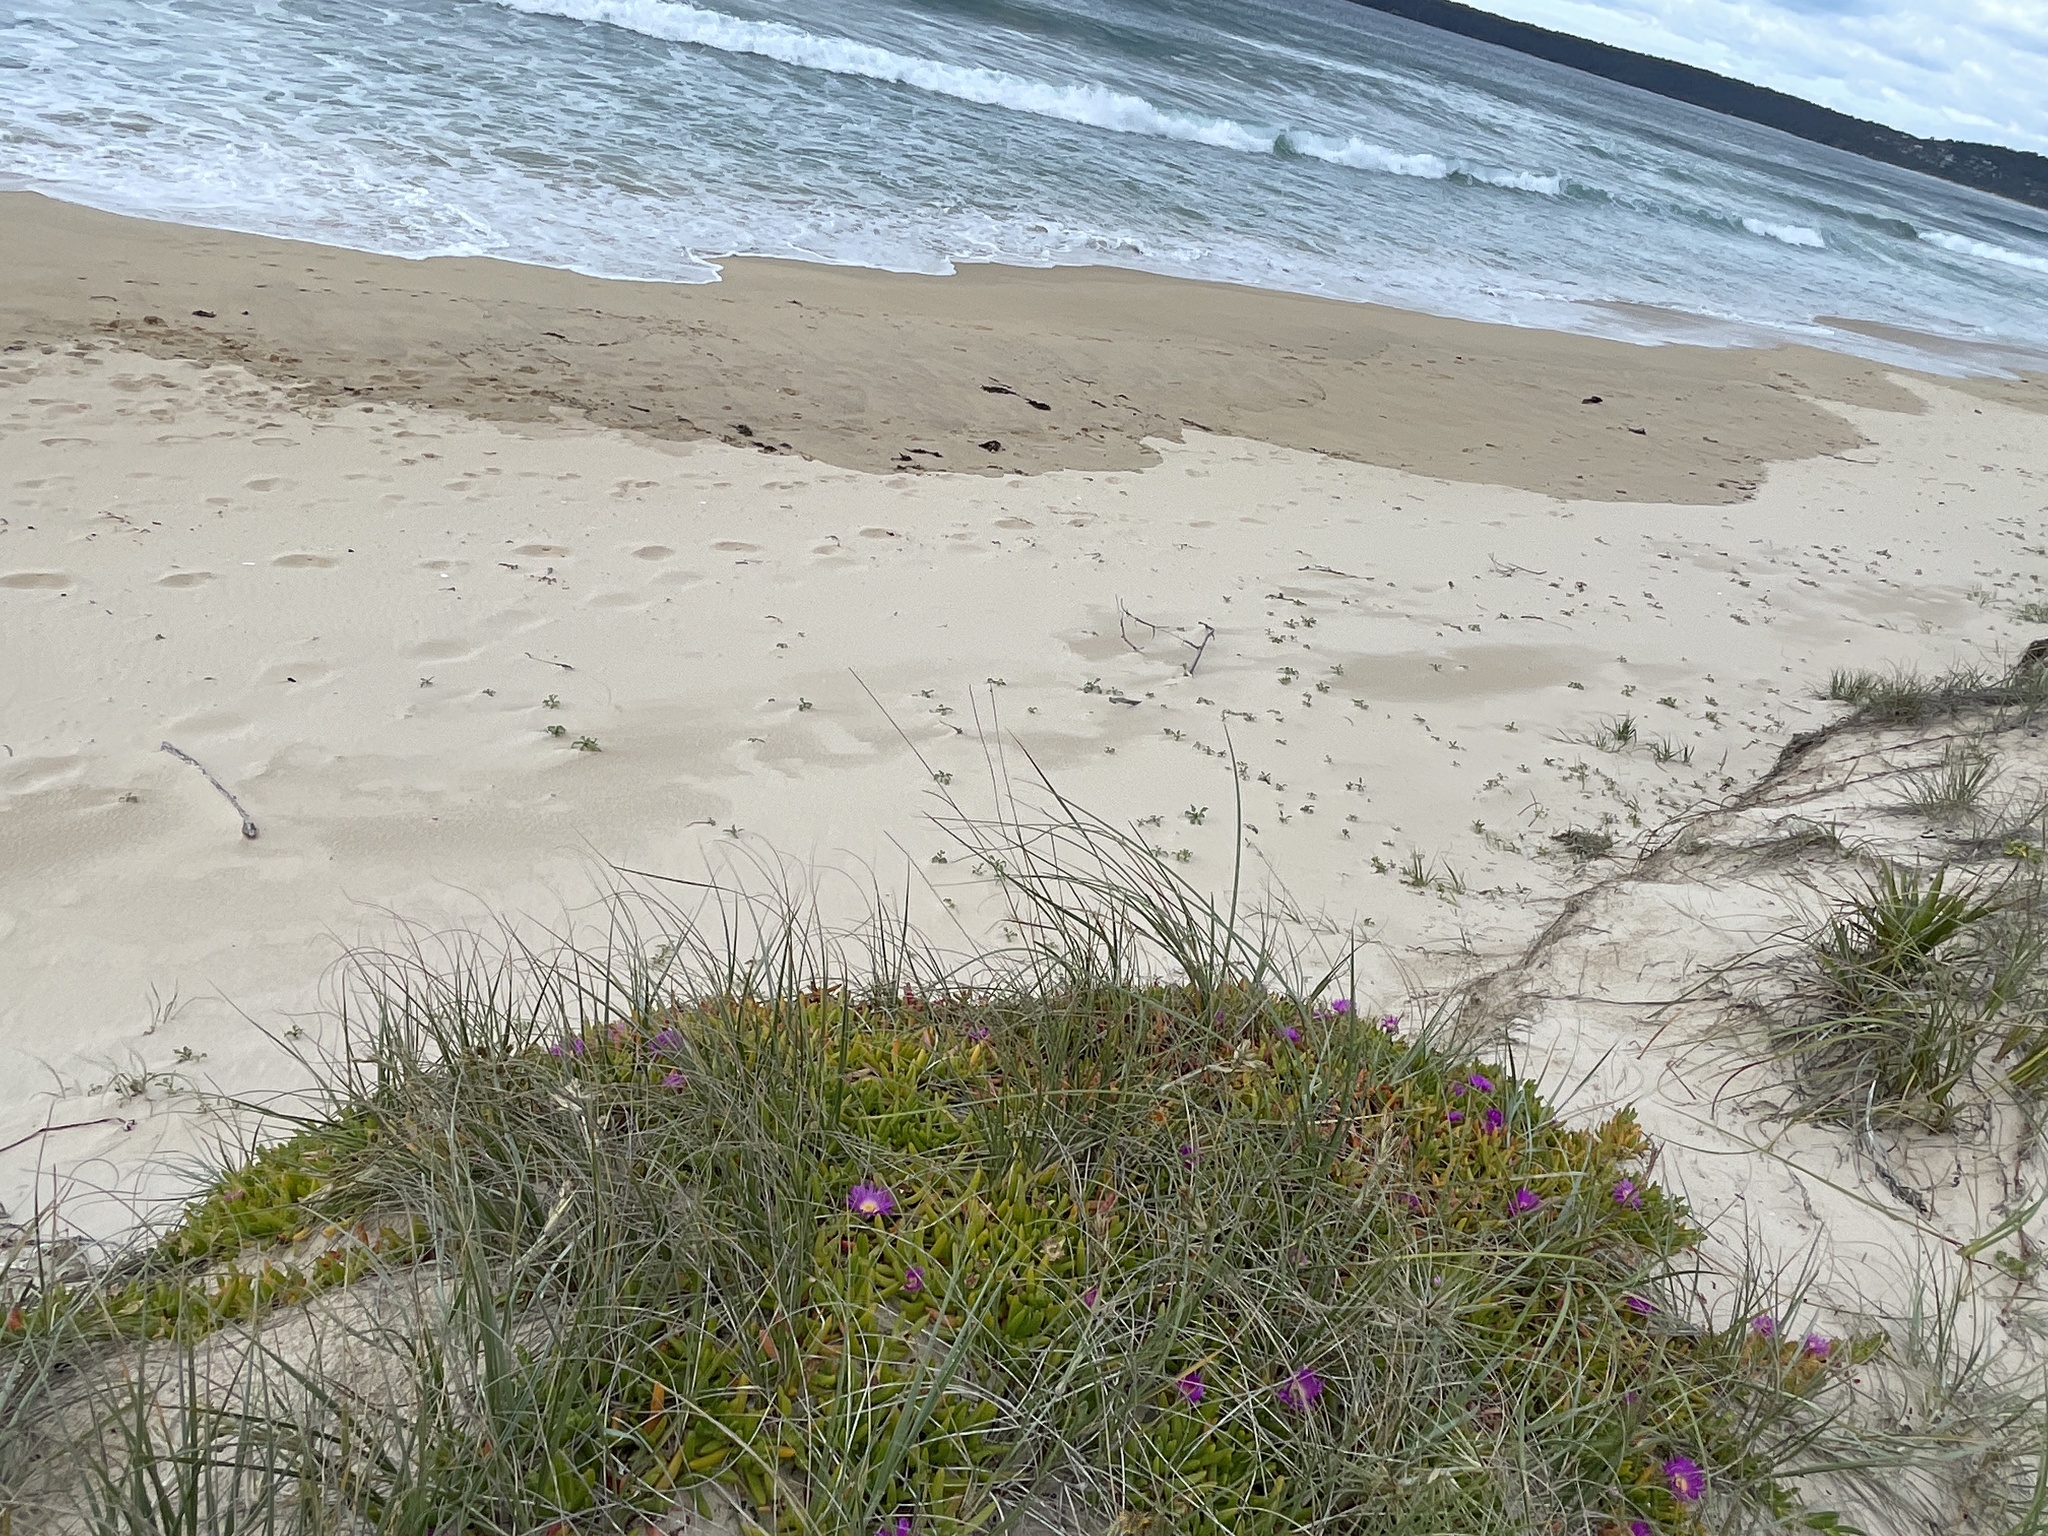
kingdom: Plantae
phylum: Tracheophyta
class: Magnoliopsida
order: Caryophyllales
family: Aizoaceae
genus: Carpobrotus
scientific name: Carpobrotus glaucescens
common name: Angular sea-fig
